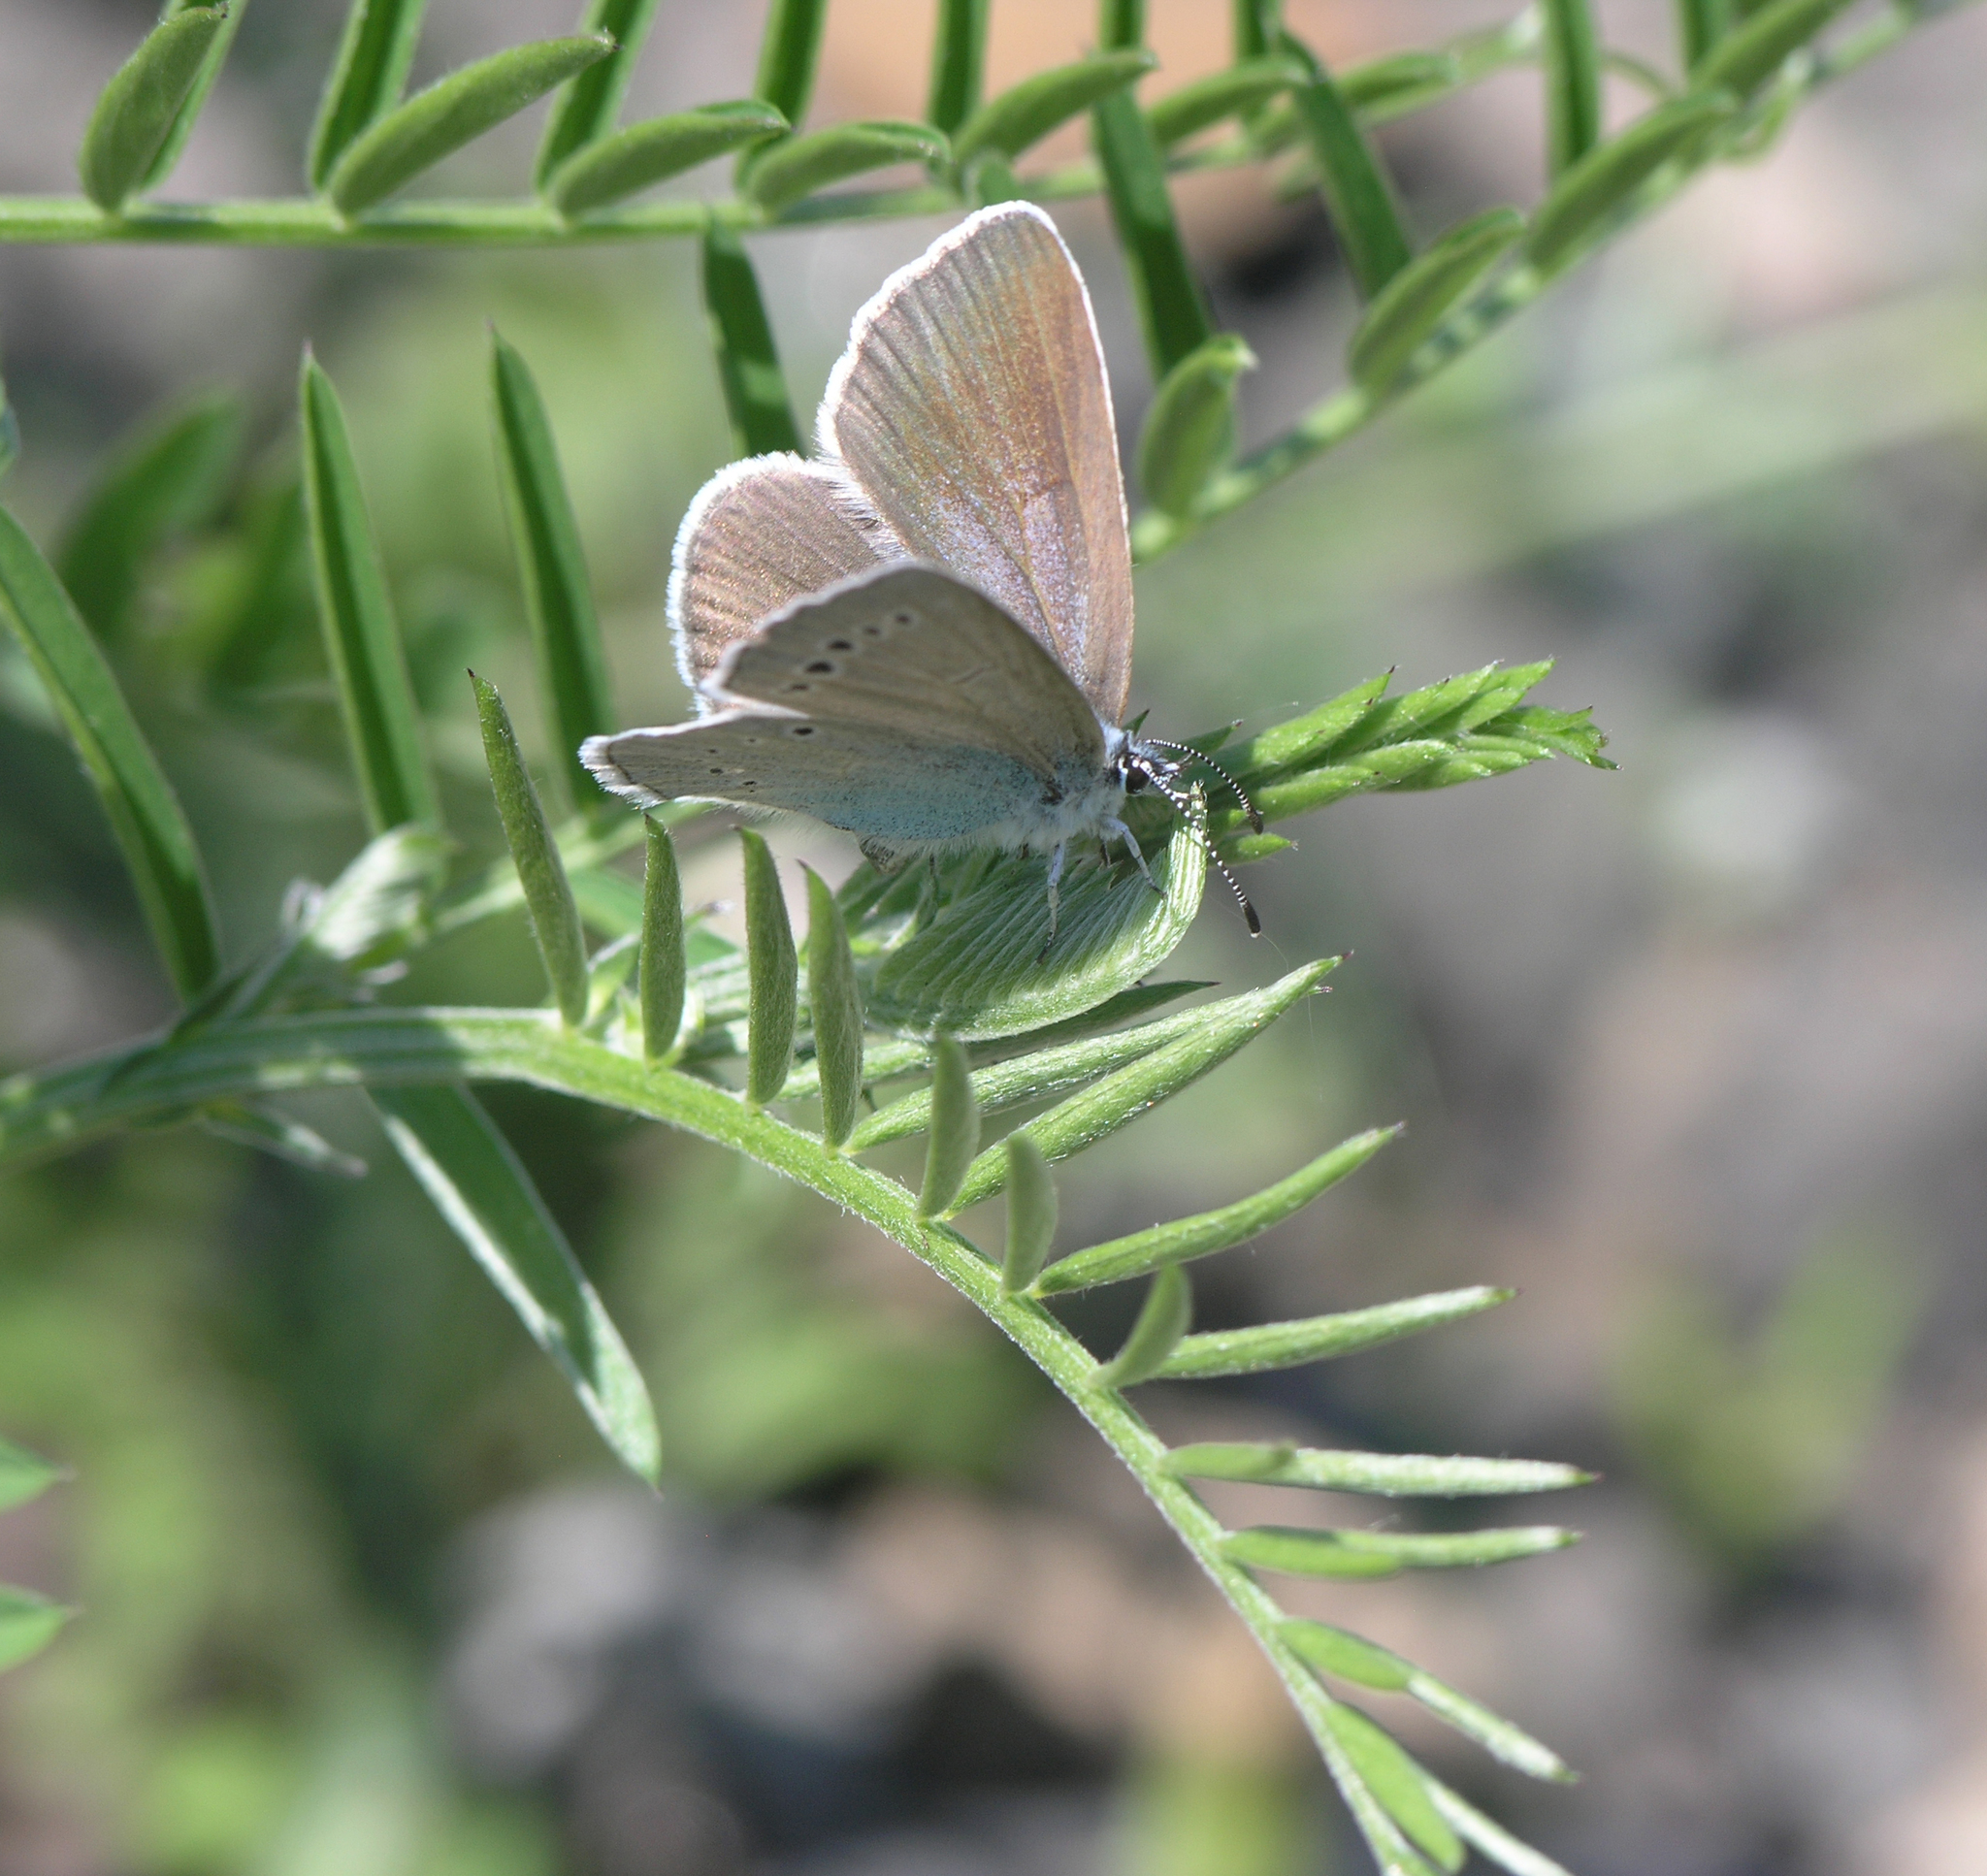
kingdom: Animalia
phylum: Arthropoda
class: Insecta
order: Lepidoptera
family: Lycaenidae
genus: Glaucopsyche
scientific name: Glaucopsyche lycormas
